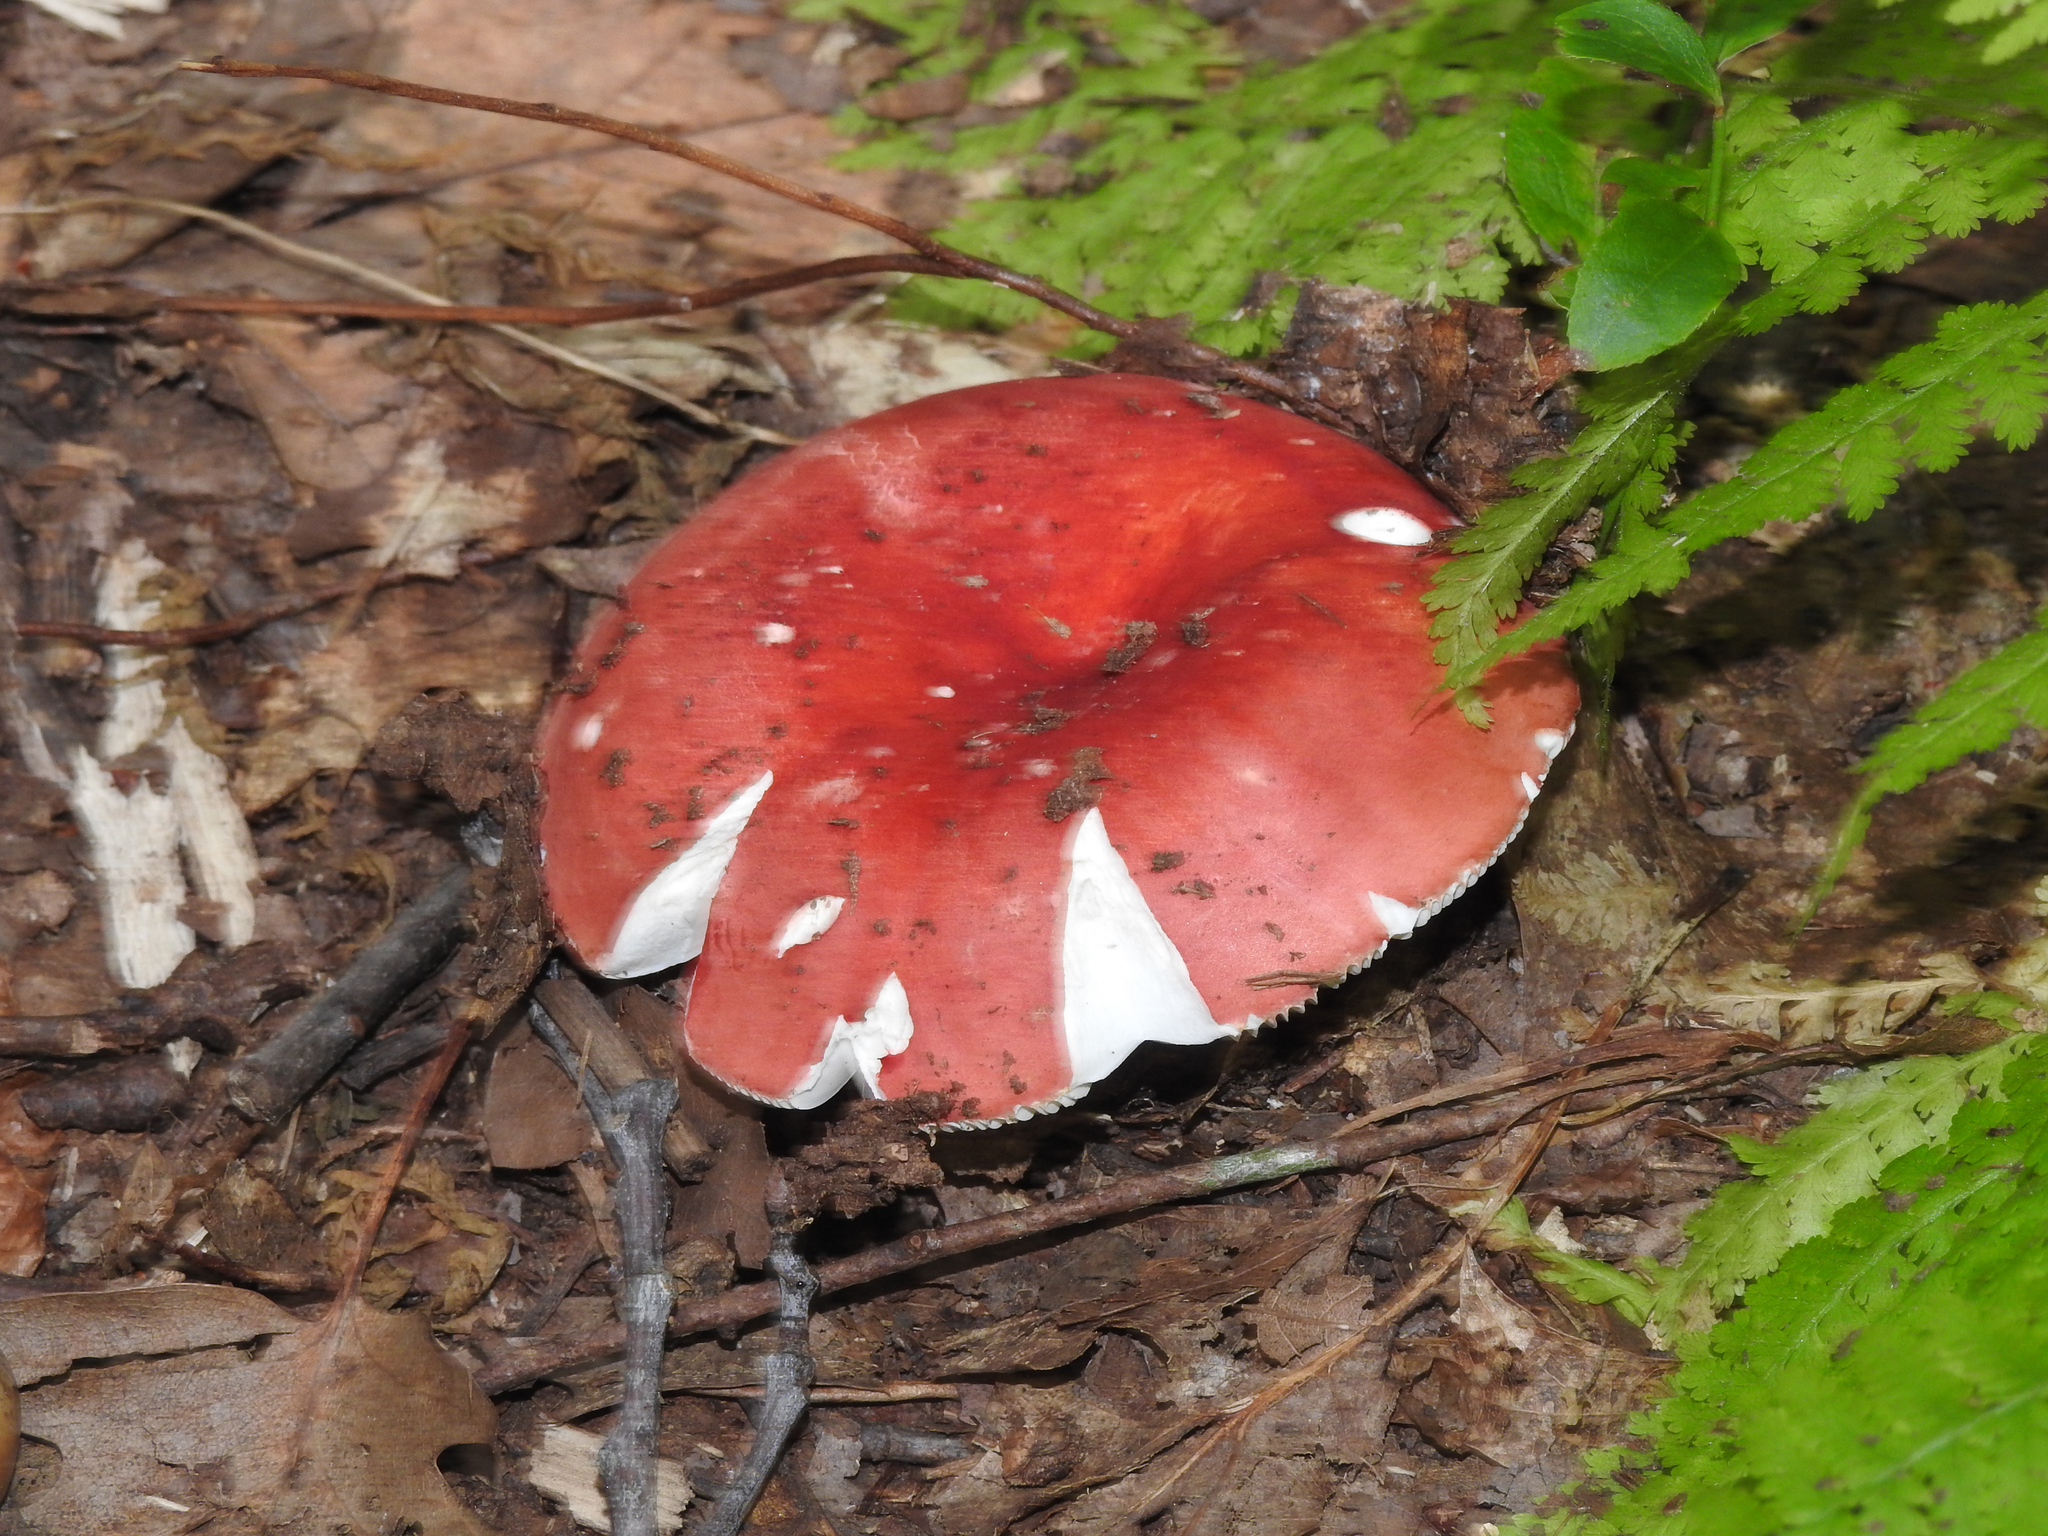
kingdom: Fungi
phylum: Basidiomycota
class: Agaricomycetes
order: Russulales
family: Russulaceae
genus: Russula
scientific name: Russula
